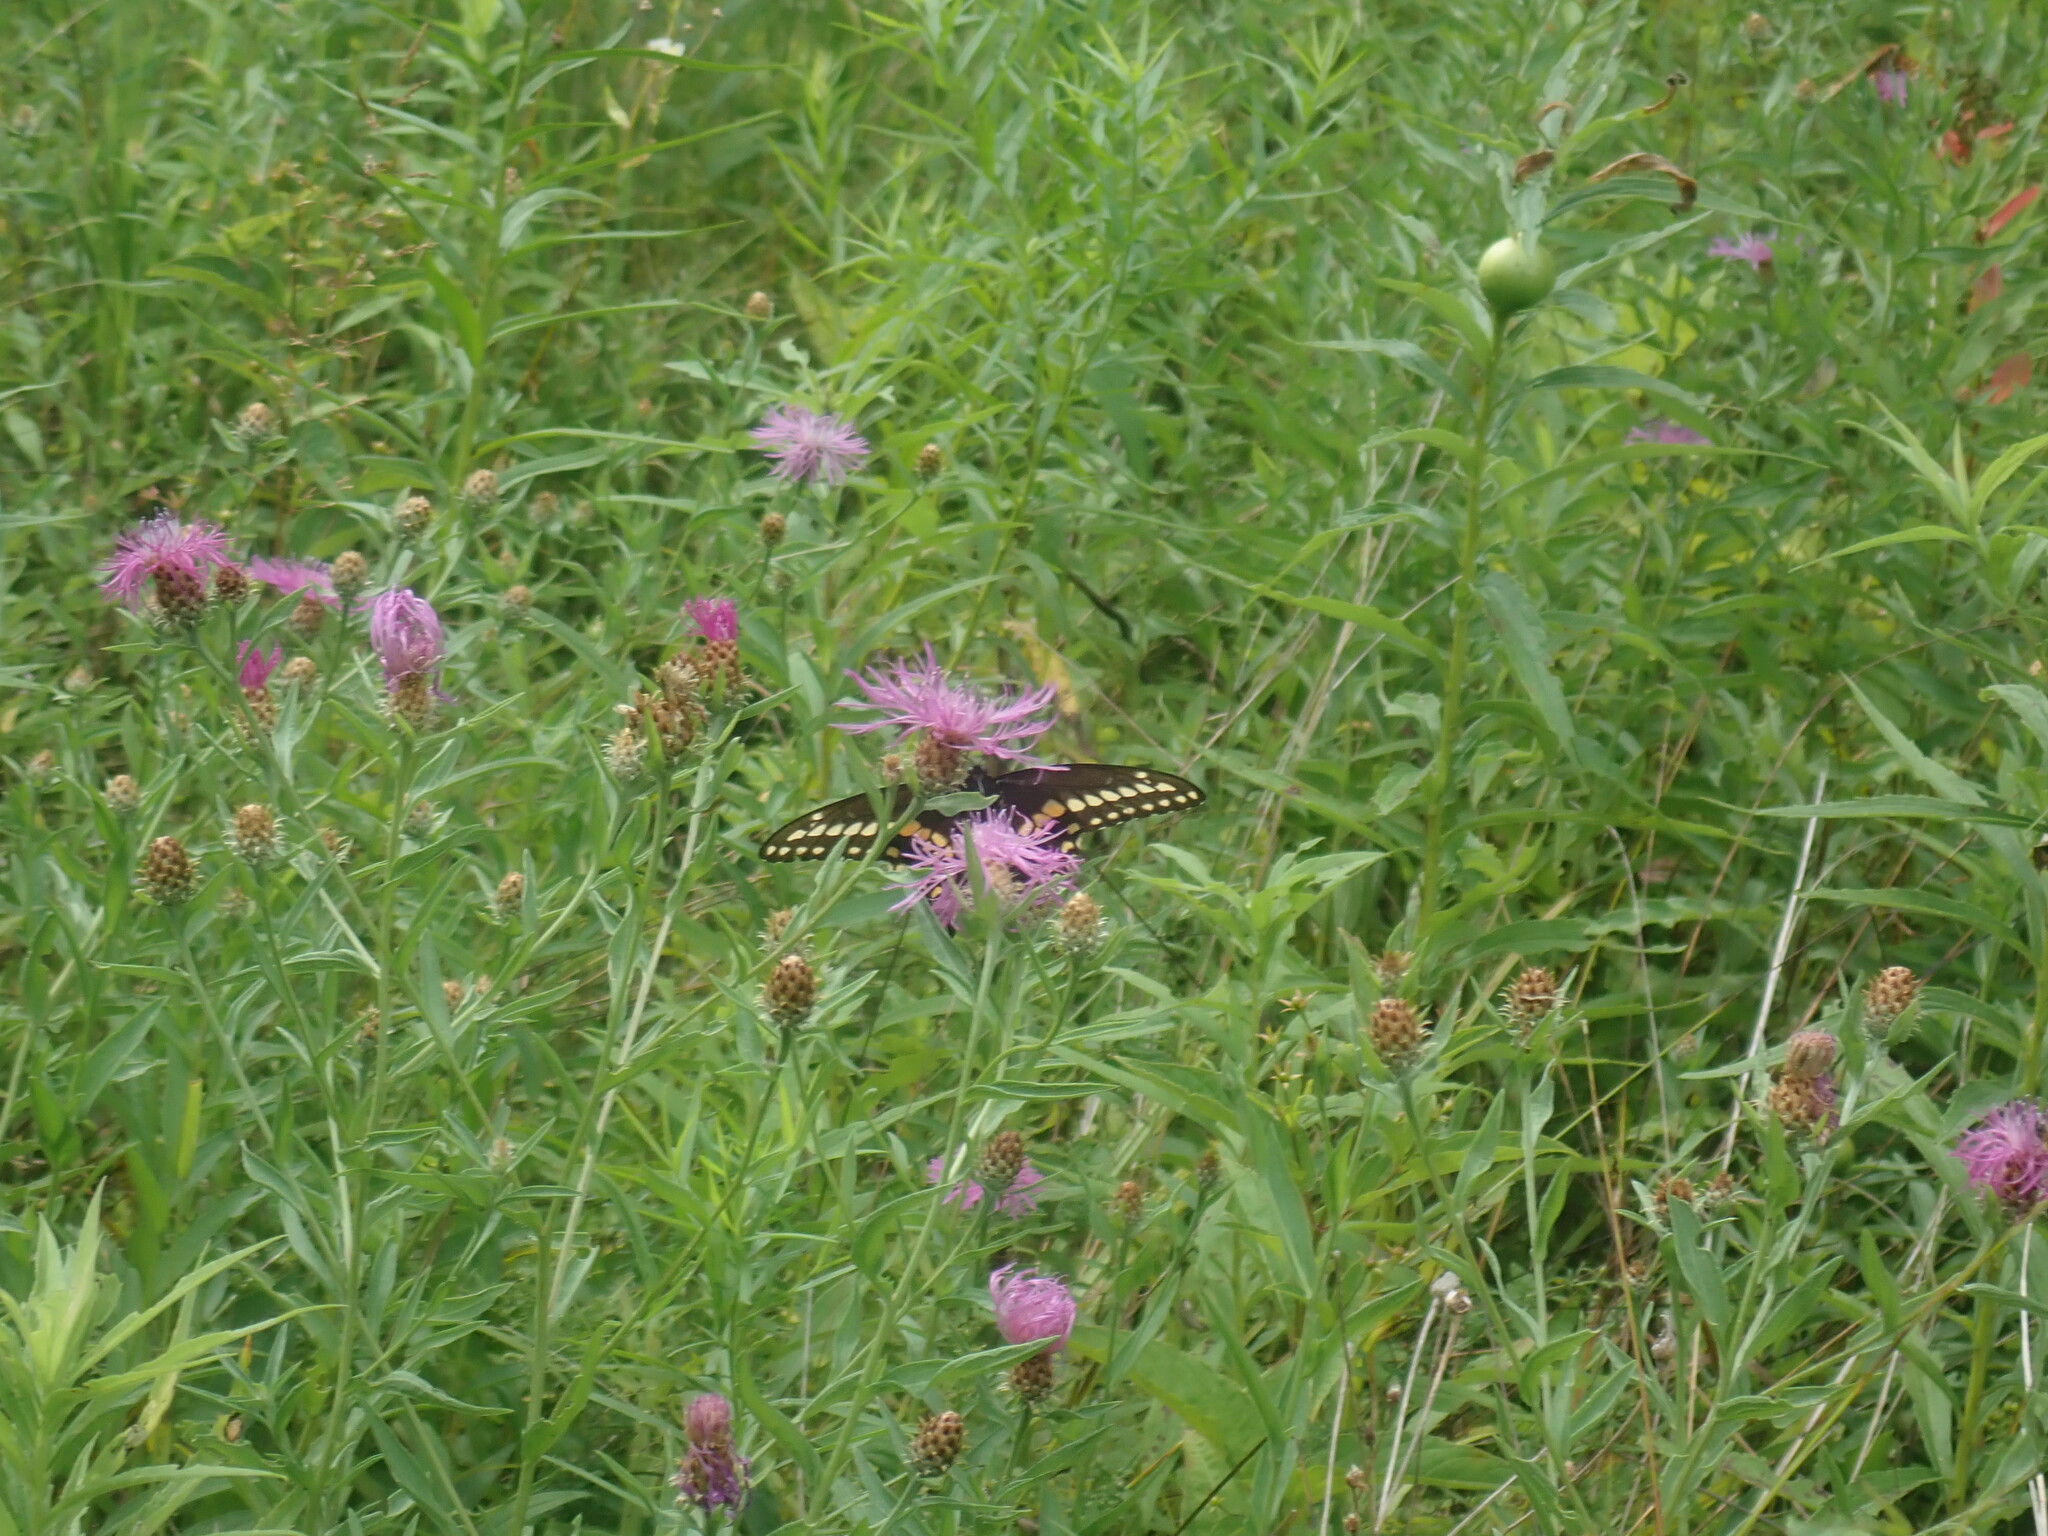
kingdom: Animalia
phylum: Arthropoda
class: Insecta
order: Lepidoptera
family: Papilionidae
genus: Papilio
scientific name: Papilio polyxenes
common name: Black swallowtail
